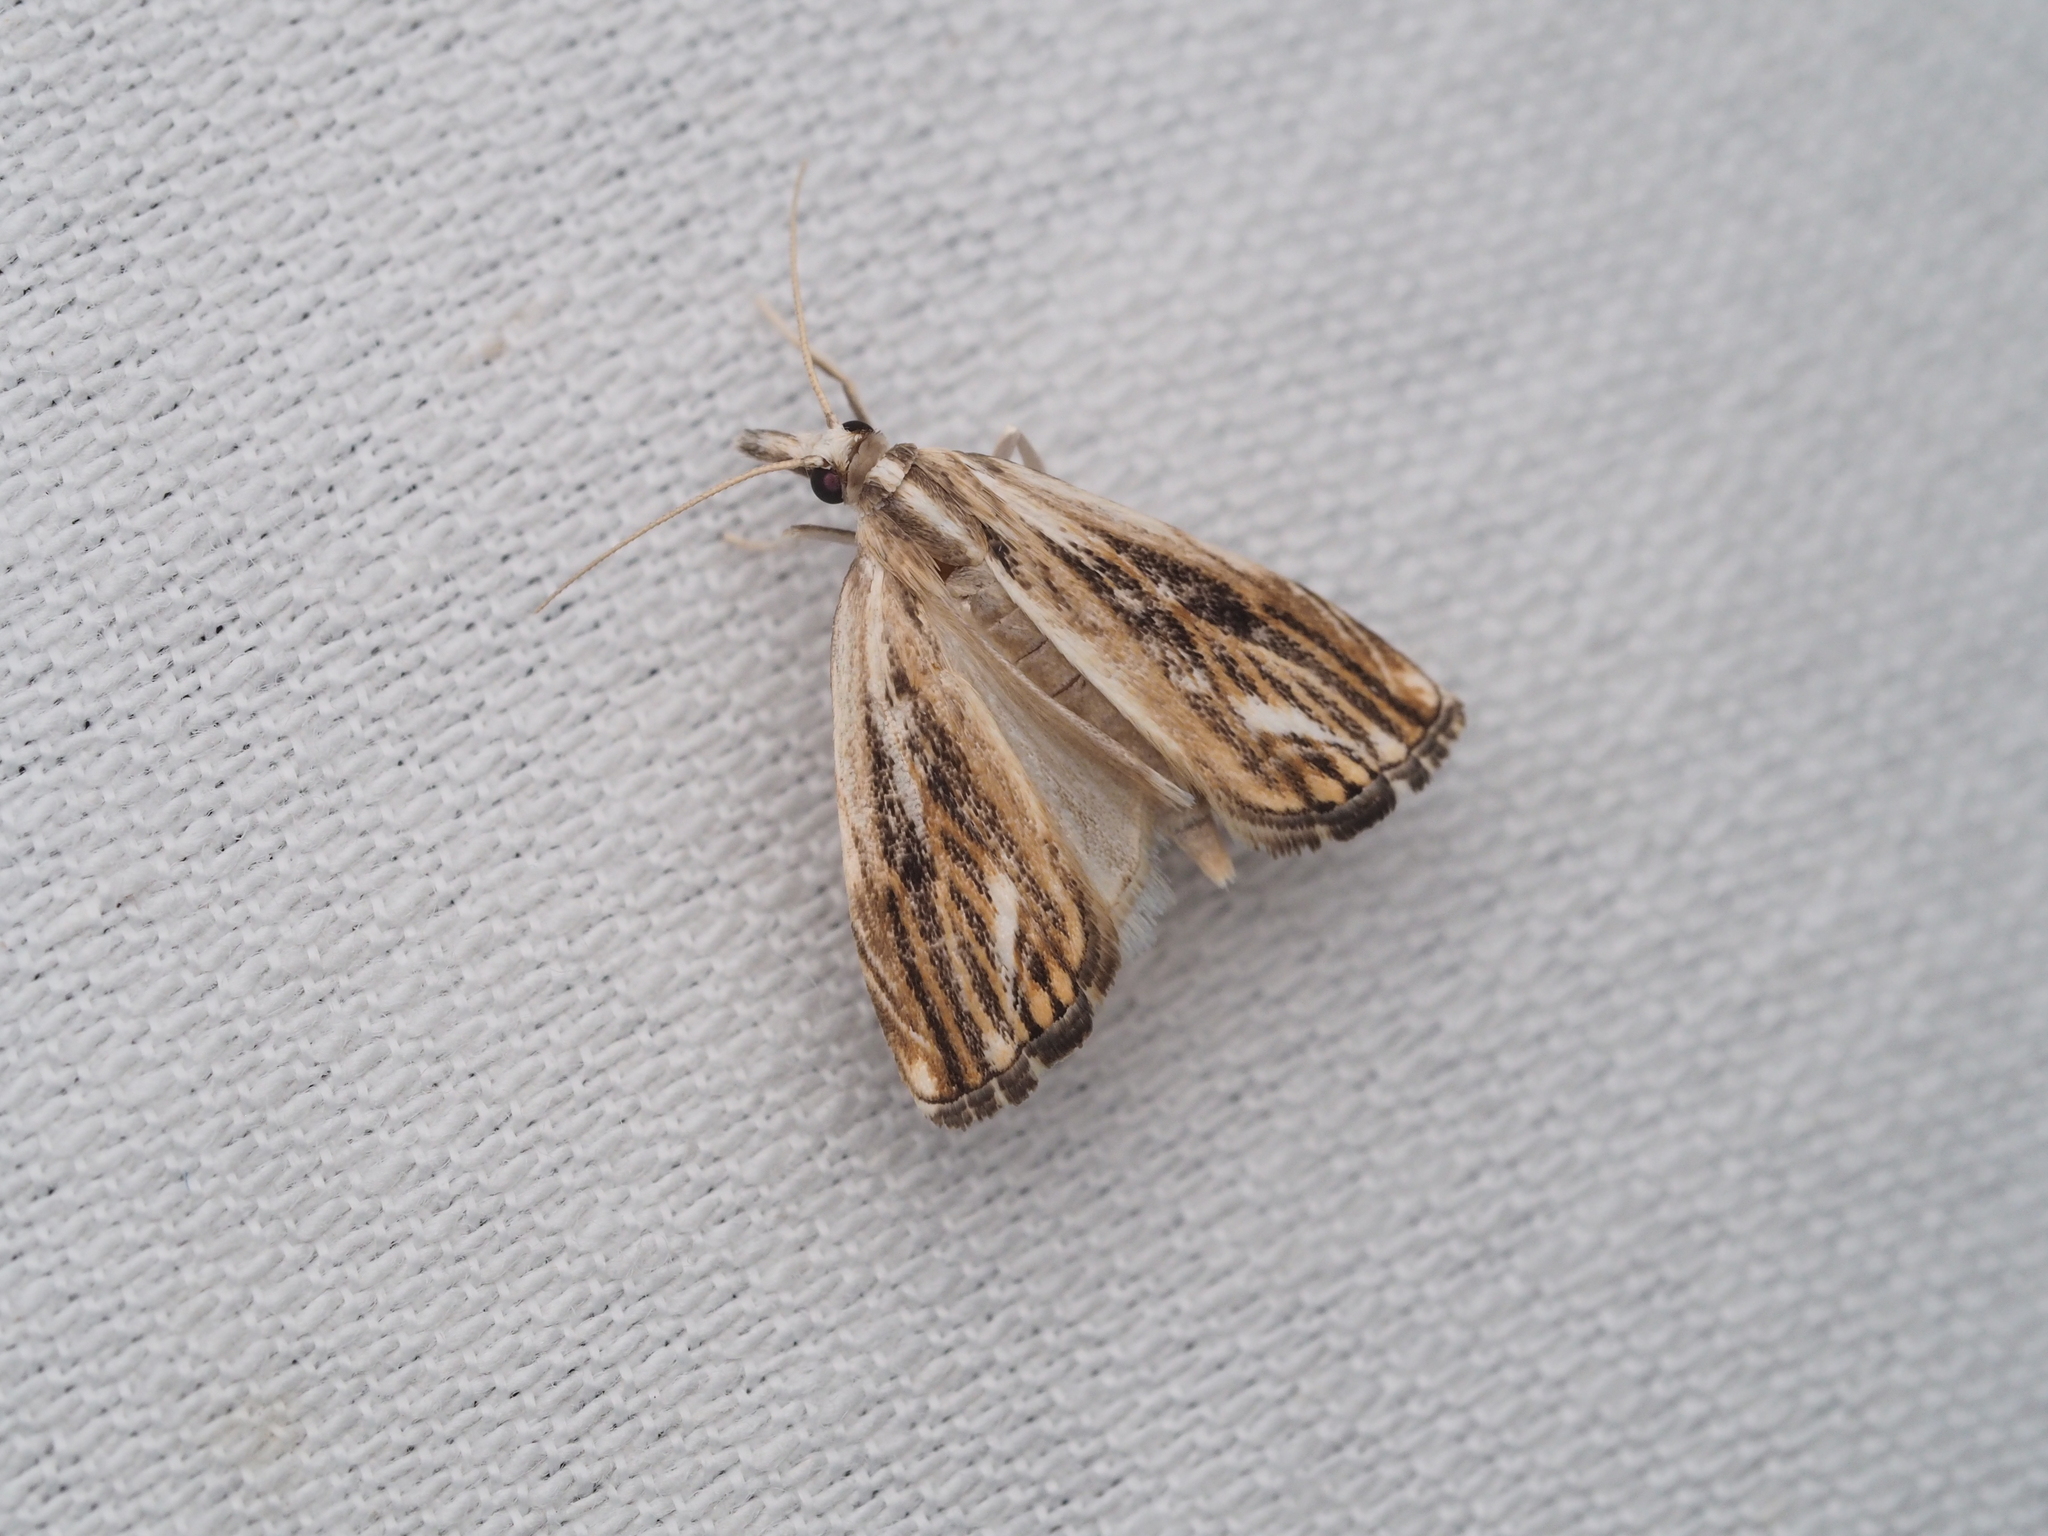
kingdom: Animalia
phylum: Arthropoda
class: Insecta
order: Lepidoptera
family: Crambidae
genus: Catoptria
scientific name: Catoptria verellus
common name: Marbled grass-veneer
